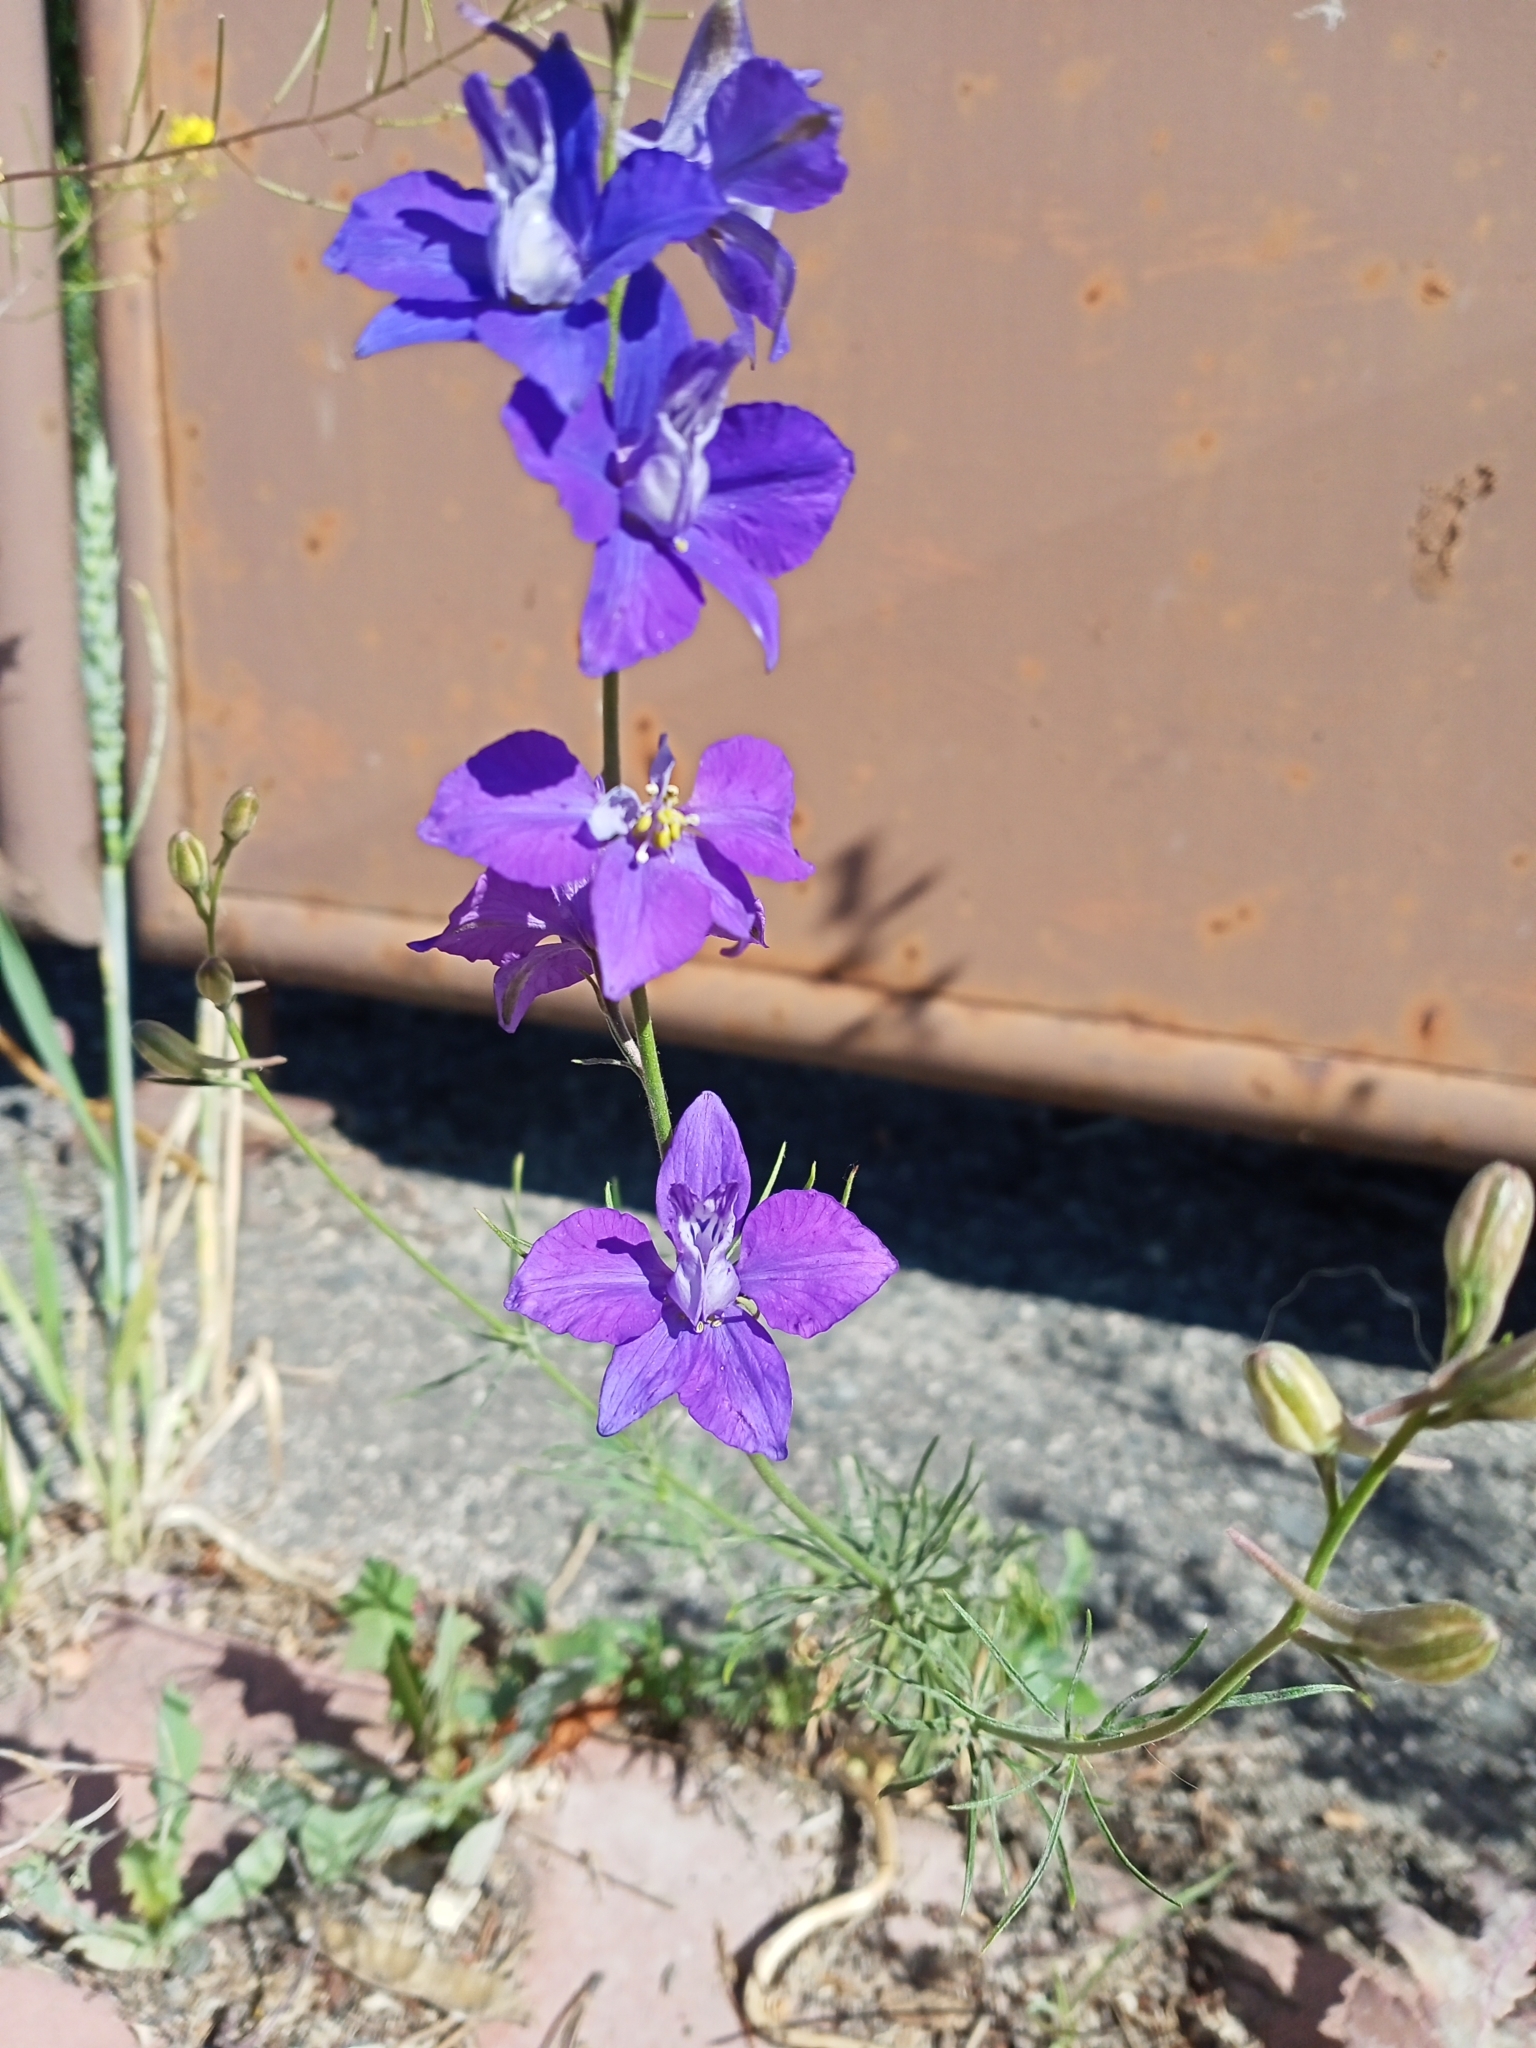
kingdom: Plantae
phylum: Tracheophyta
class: Magnoliopsida
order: Ranunculales
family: Ranunculaceae
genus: Delphinium
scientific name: Delphinium ajacis
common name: Doubtful knight's-spur
